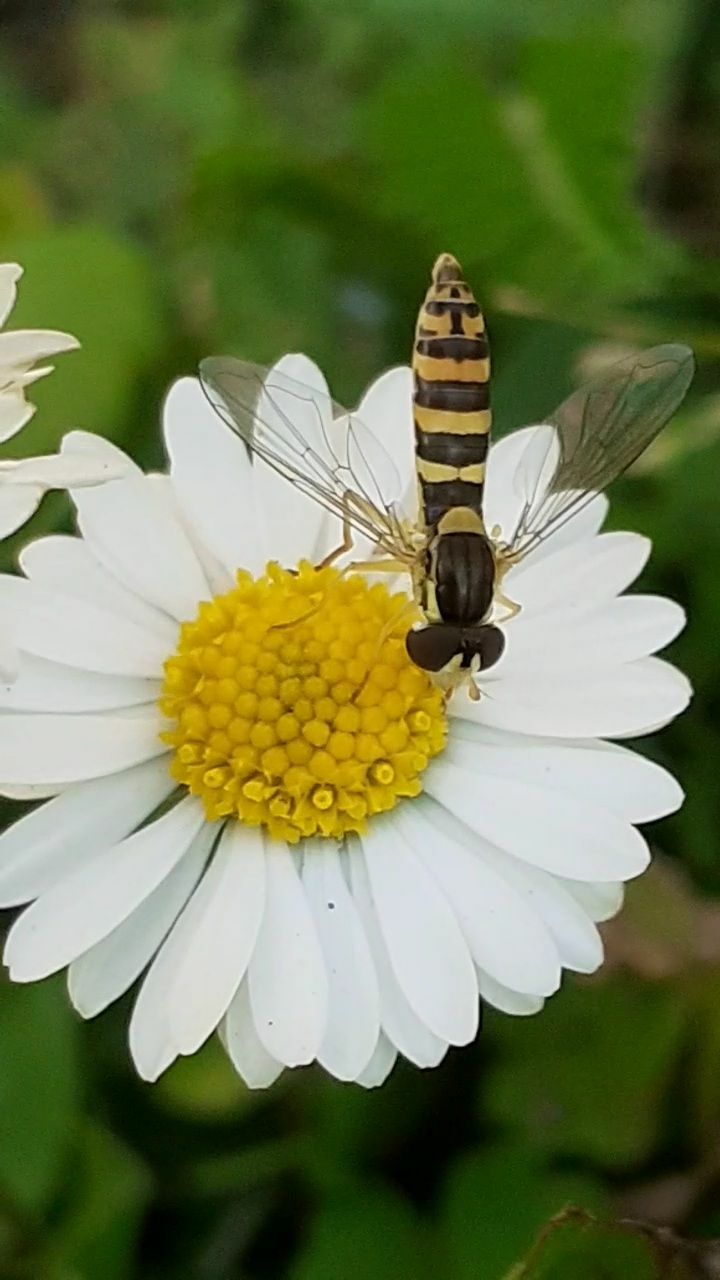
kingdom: Animalia
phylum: Arthropoda
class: Insecta
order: Diptera
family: Syrphidae
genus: Sphaerophoria
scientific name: Sphaerophoria
